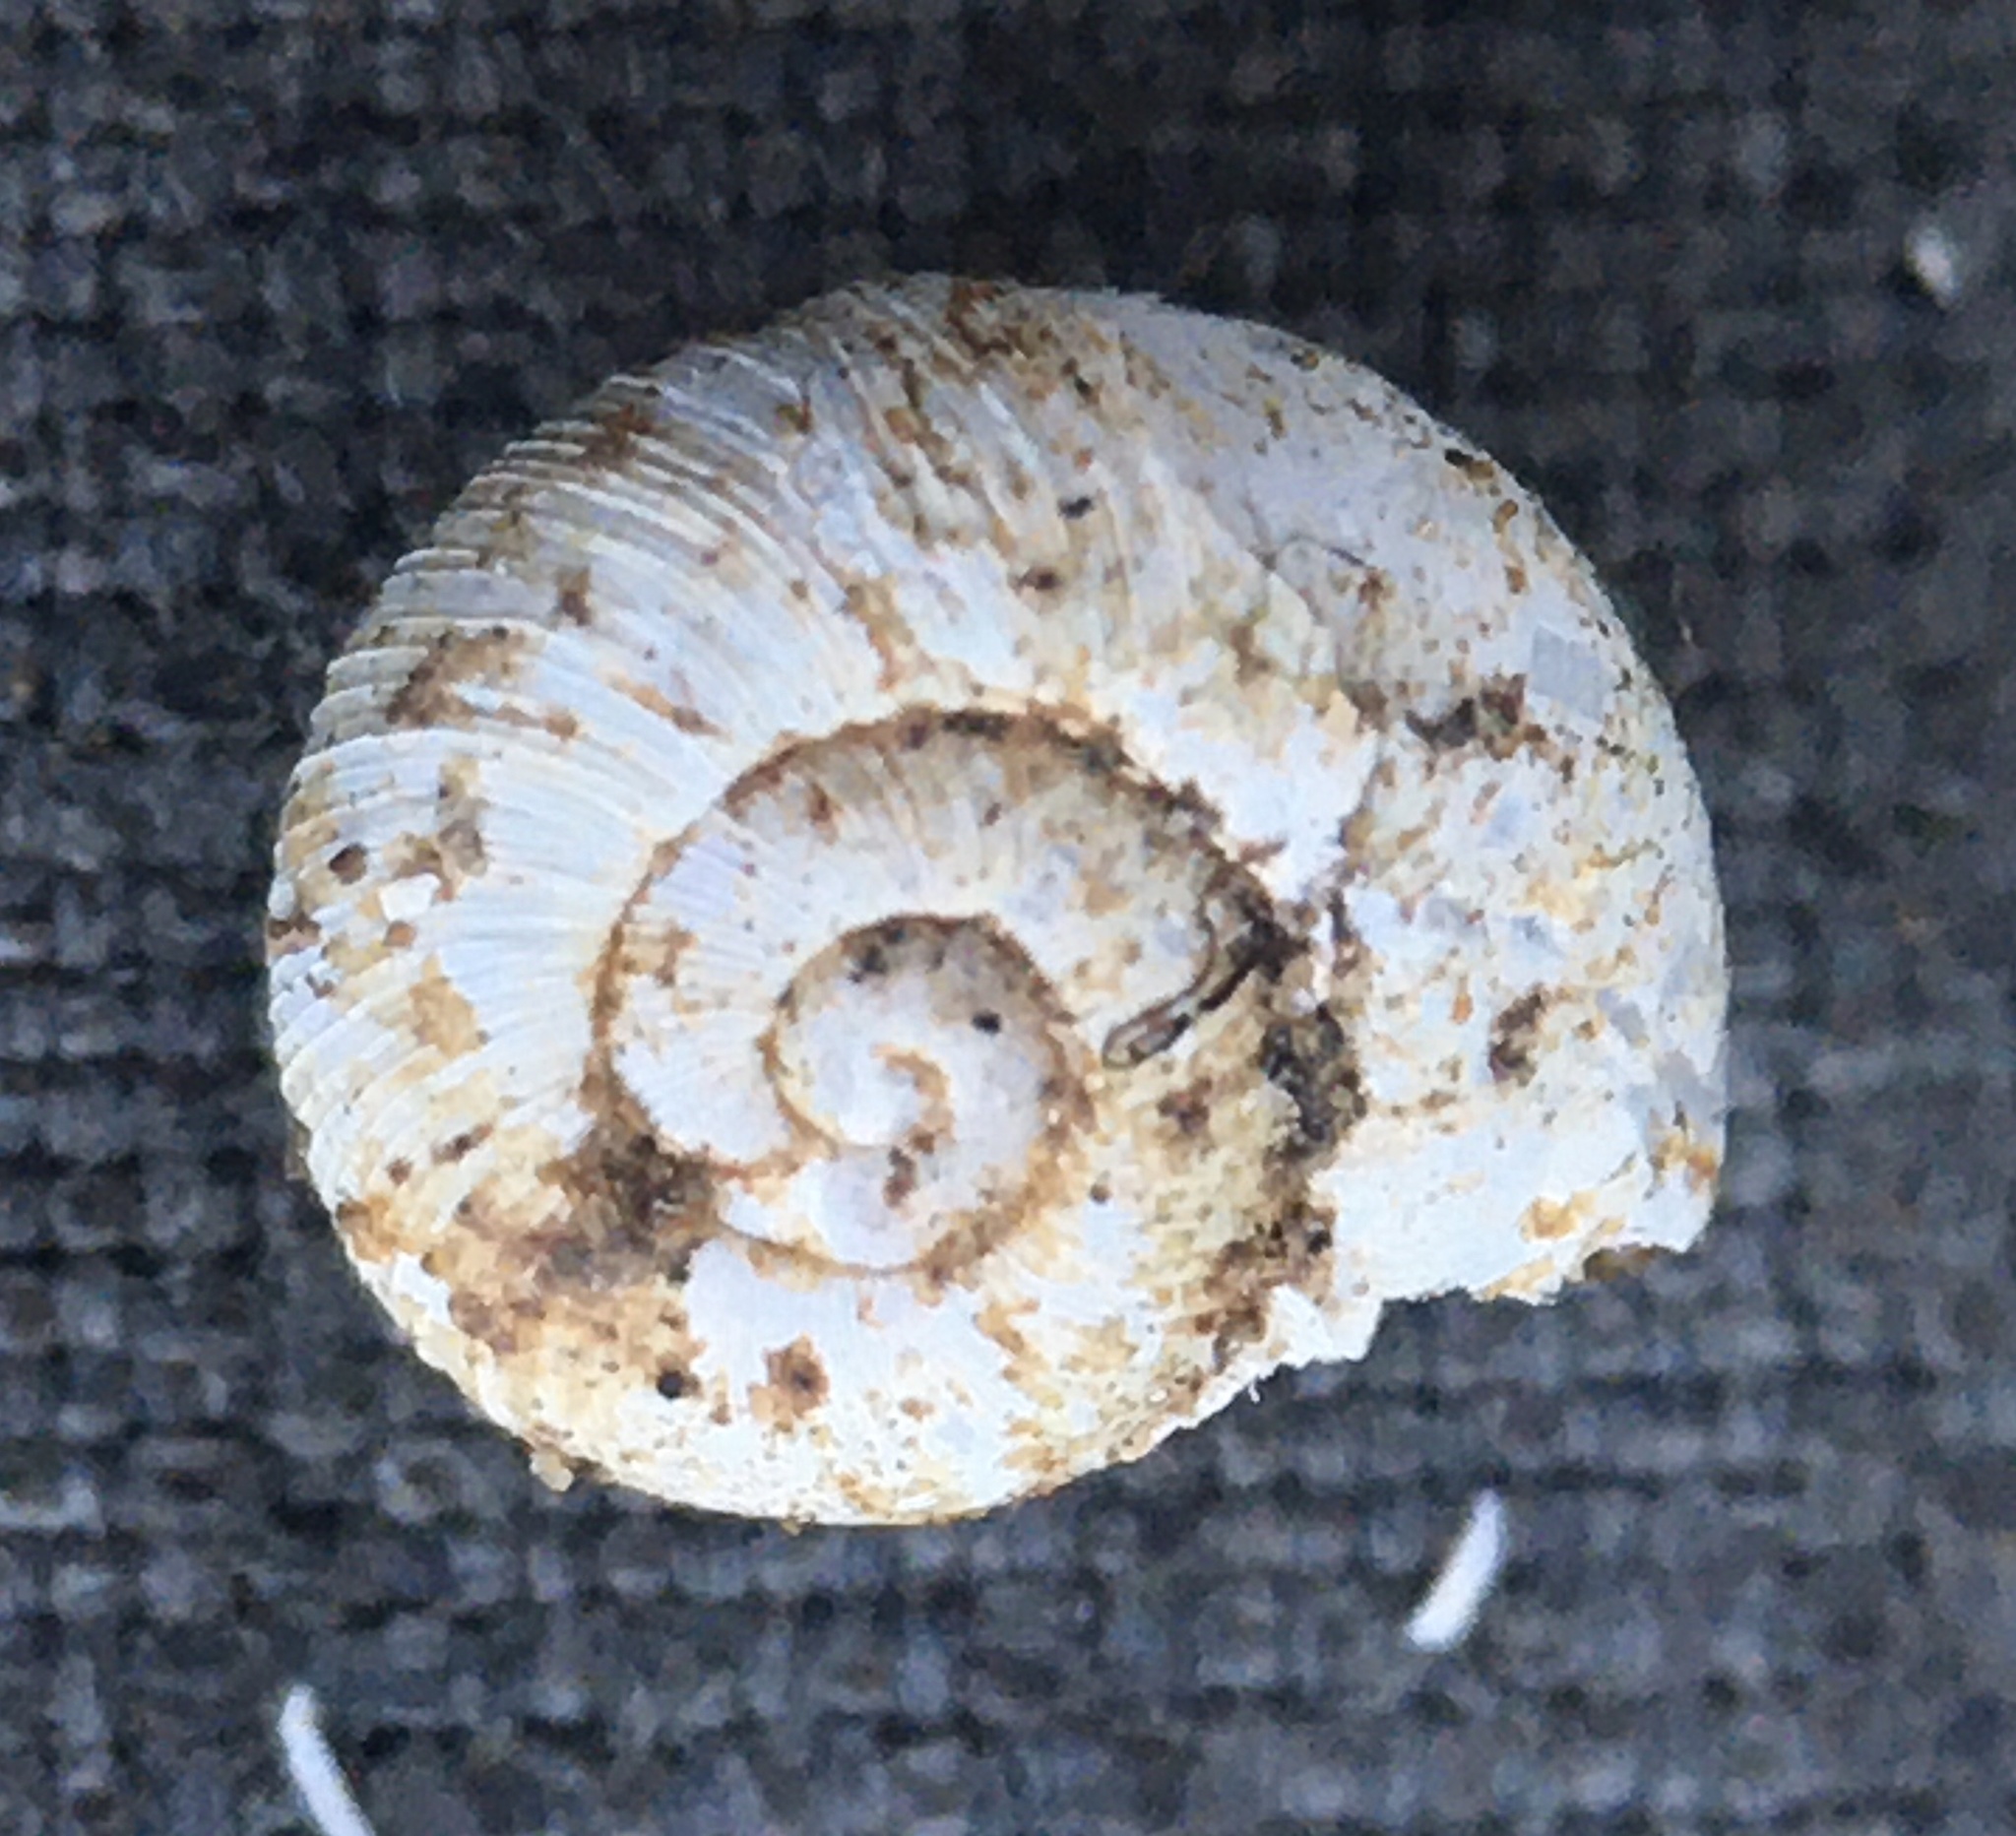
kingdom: Animalia
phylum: Mollusca
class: Gastropoda
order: Stylommatophora
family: Haplotrematidae
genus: Haplotrema
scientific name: Haplotrema duranti
